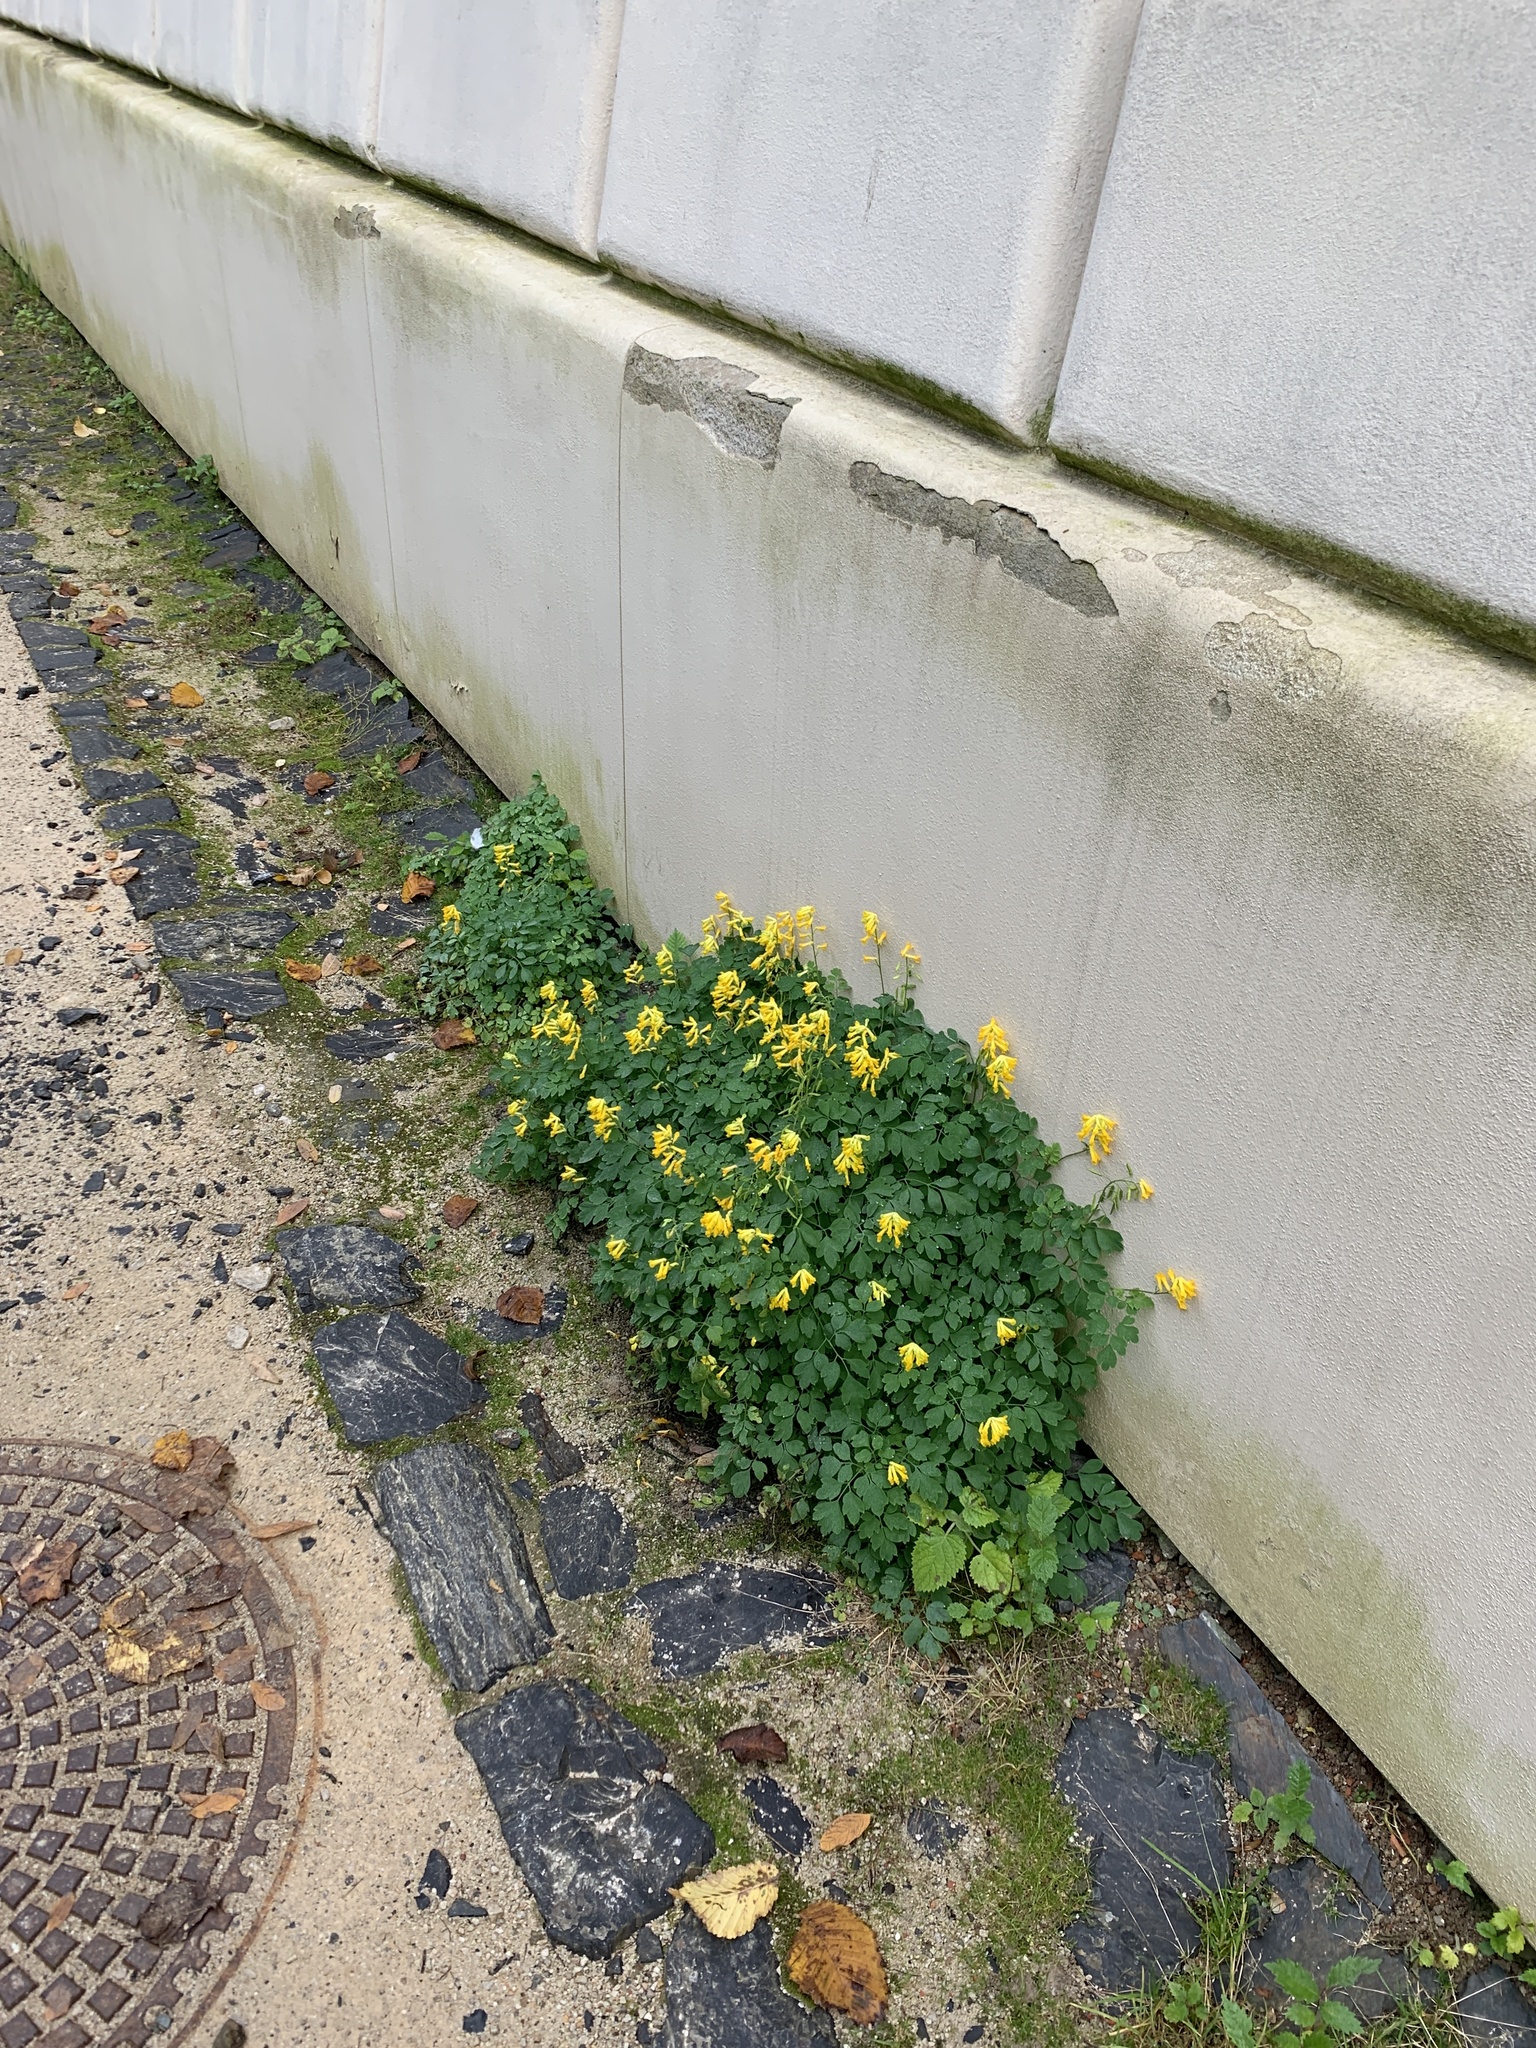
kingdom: Plantae
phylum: Tracheophyta
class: Magnoliopsida
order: Ranunculales
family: Papaveraceae
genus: Pseudofumaria
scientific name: Pseudofumaria lutea
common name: Yellow corydalis
